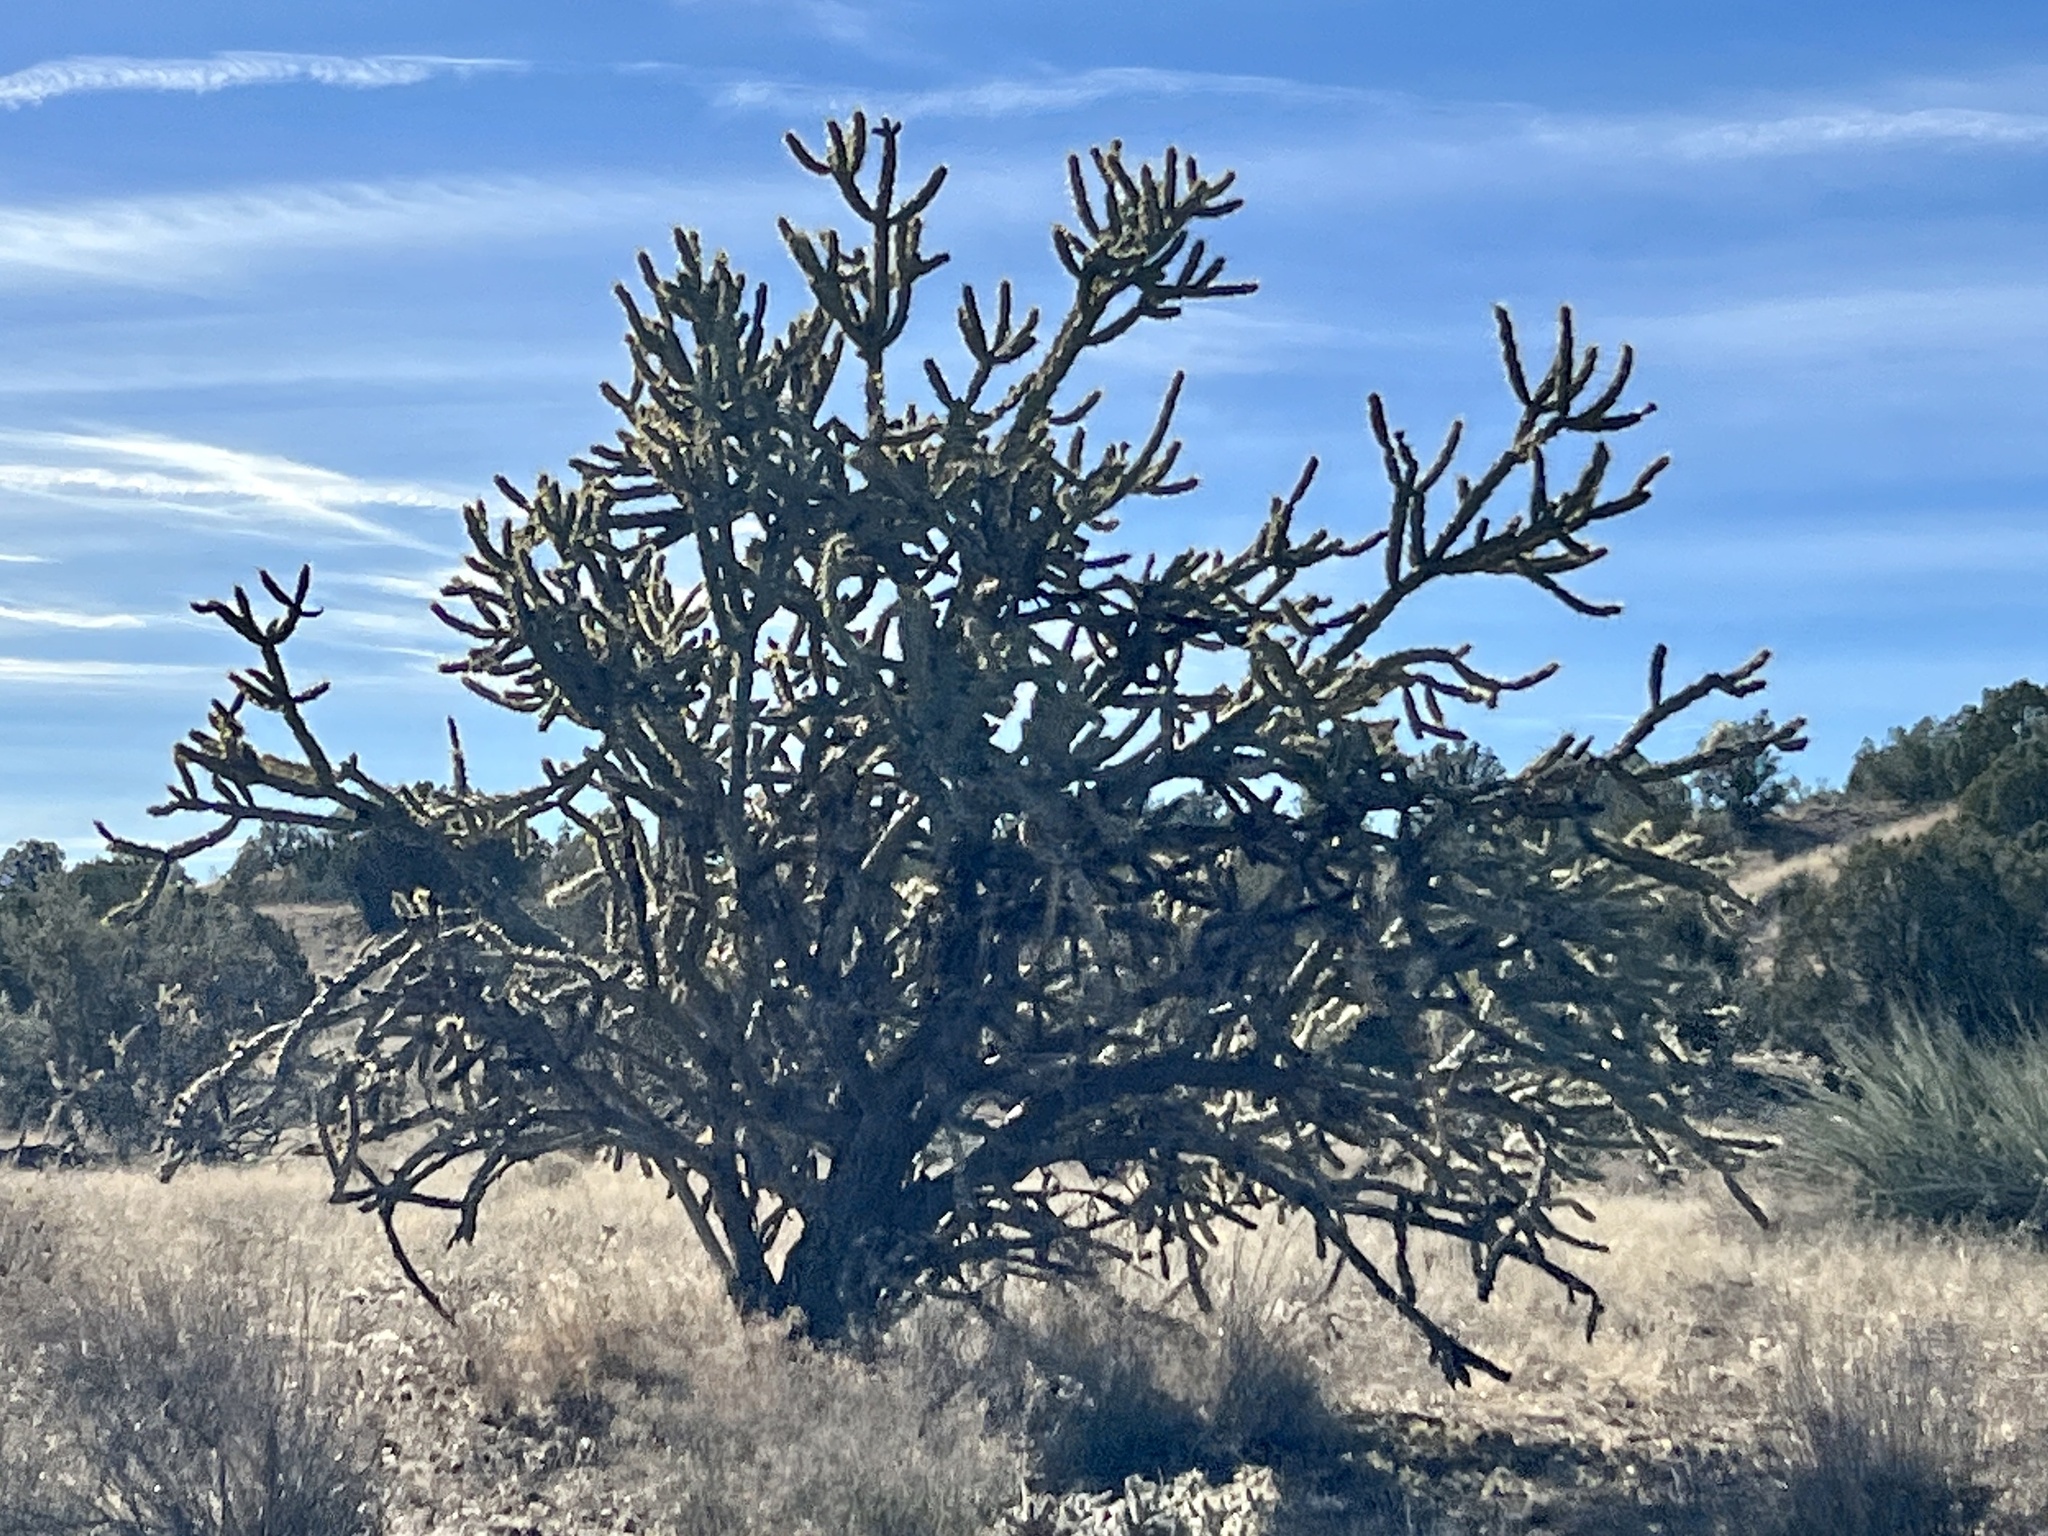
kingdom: Plantae
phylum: Tracheophyta
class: Magnoliopsida
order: Caryophyllales
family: Cactaceae
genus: Cylindropuntia
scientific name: Cylindropuntia acanthocarpa
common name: Buckhorn cholla
